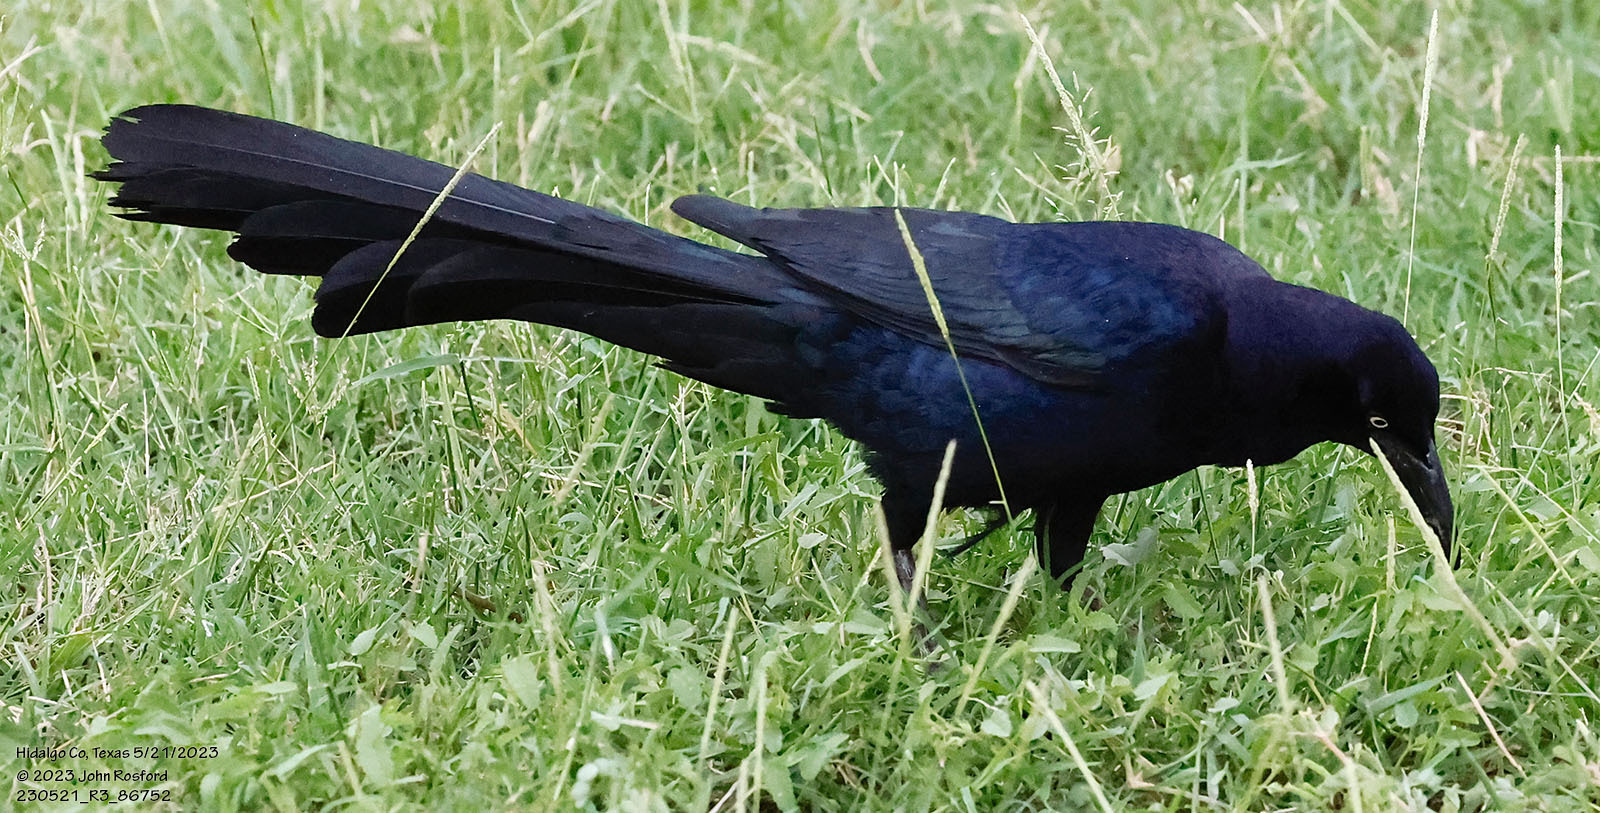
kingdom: Animalia
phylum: Chordata
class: Aves
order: Passeriformes
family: Icteridae
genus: Quiscalus
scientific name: Quiscalus mexicanus
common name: Great-tailed grackle
